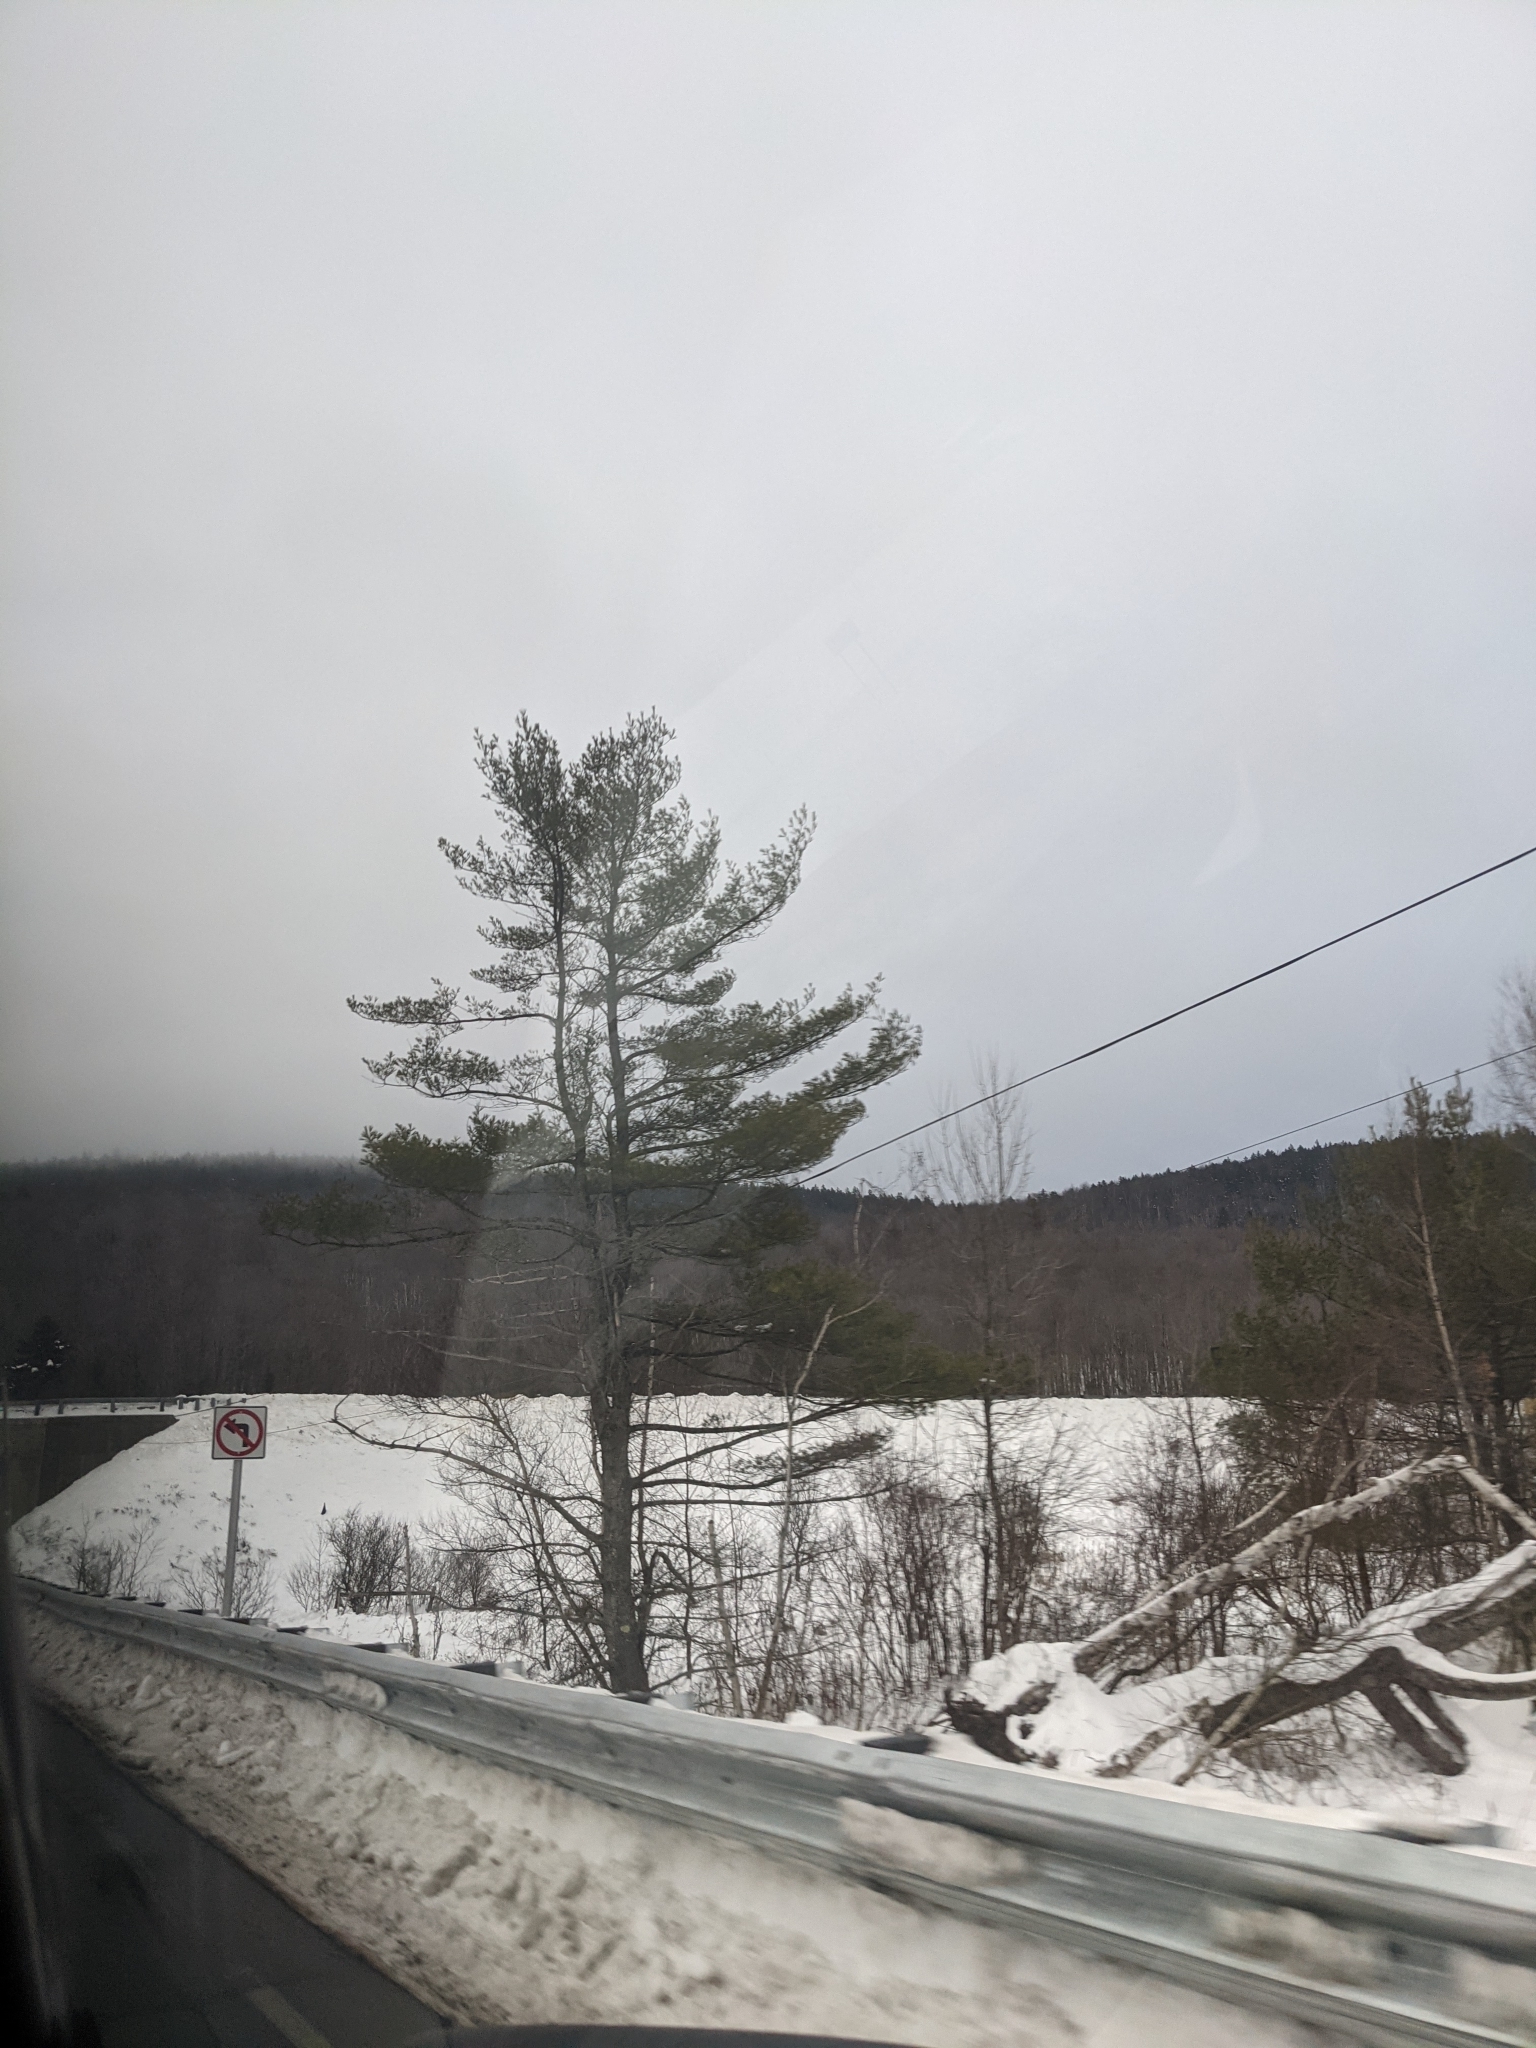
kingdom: Plantae
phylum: Tracheophyta
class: Pinopsida
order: Pinales
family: Pinaceae
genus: Pinus
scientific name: Pinus strobus
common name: Weymouth pine
